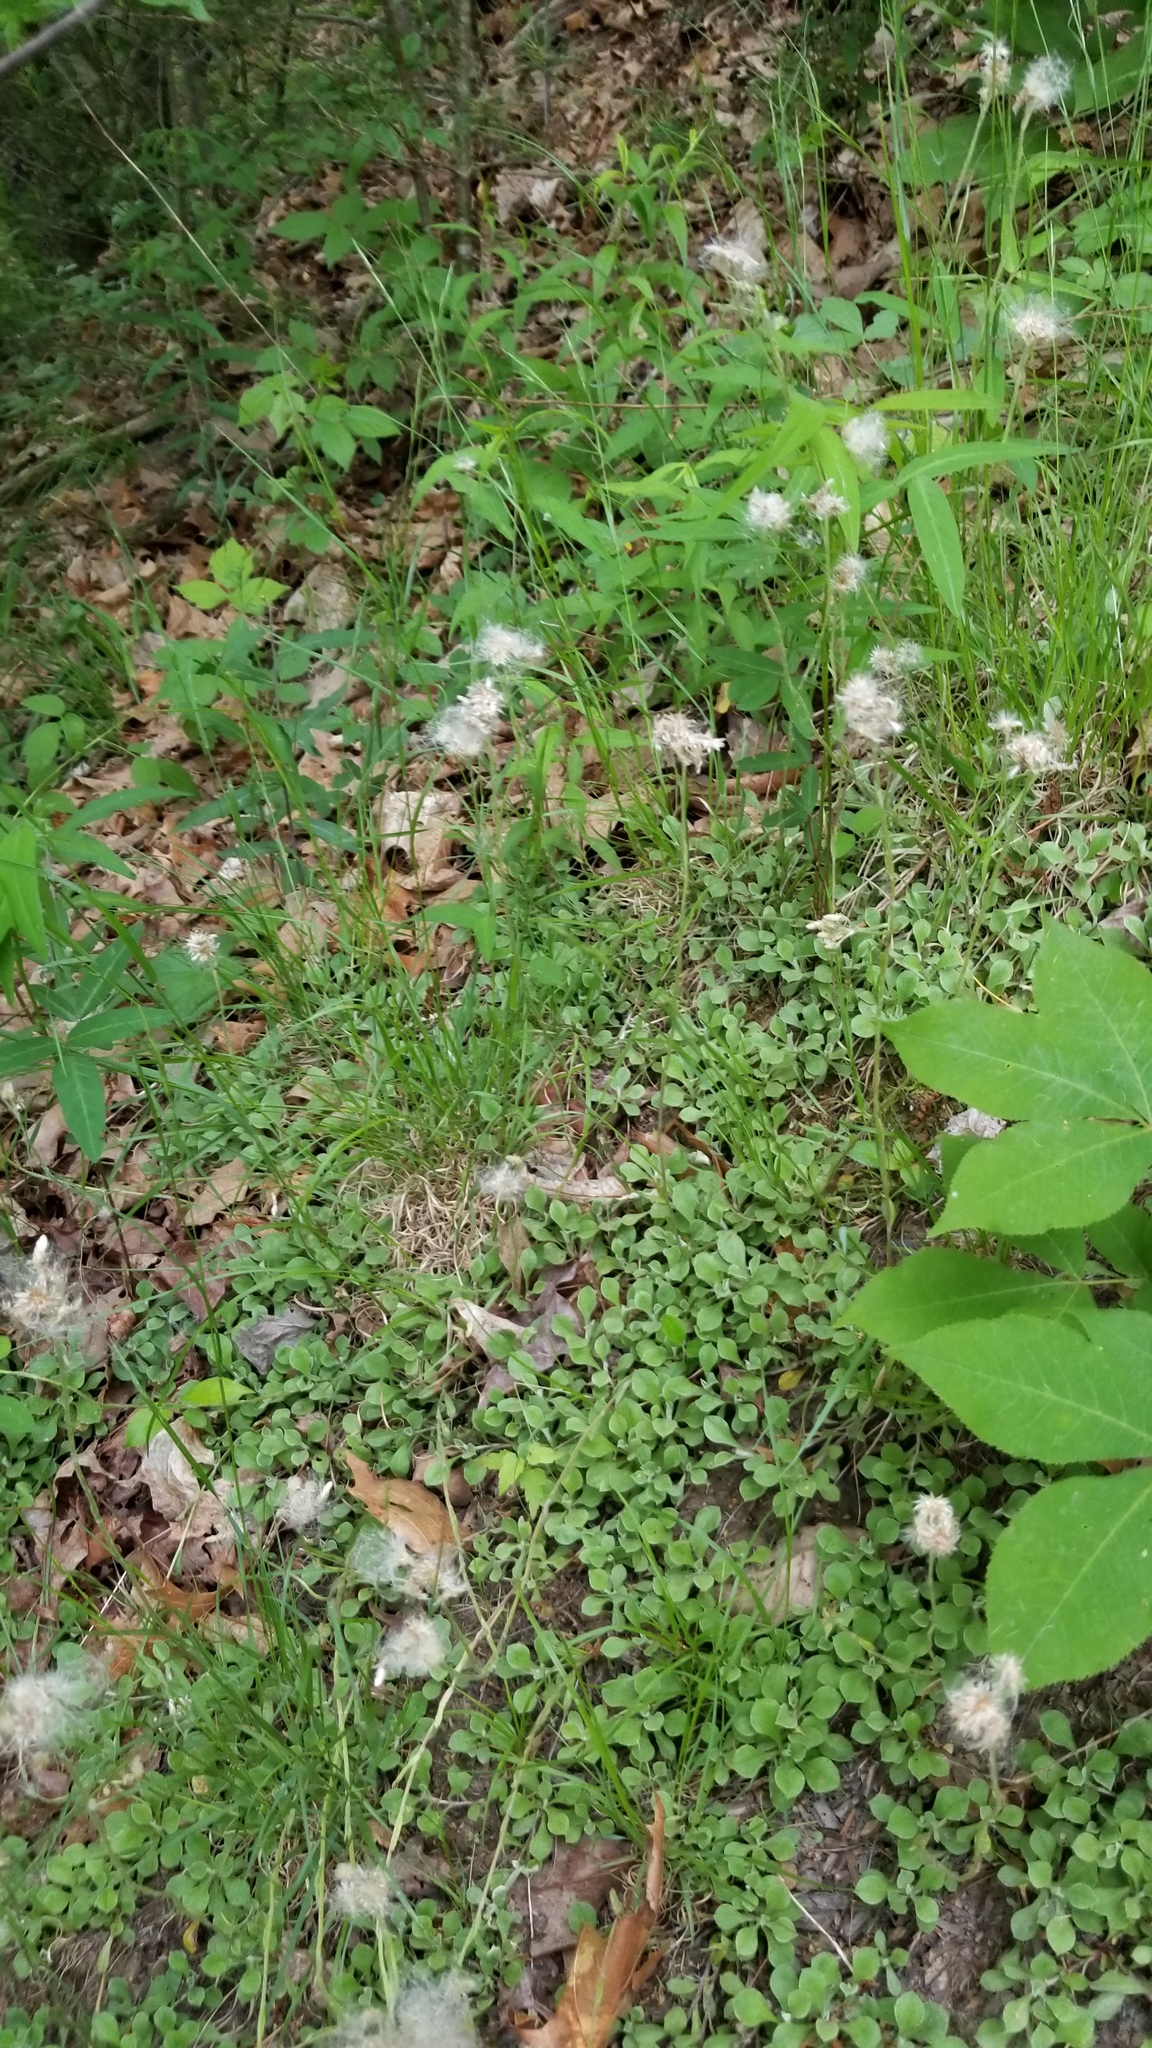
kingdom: Plantae
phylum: Tracheophyta
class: Magnoliopsida
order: Asterales
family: Asteraceae
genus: Antennaria
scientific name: Antennaria howellii
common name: Howell's pussytoes
